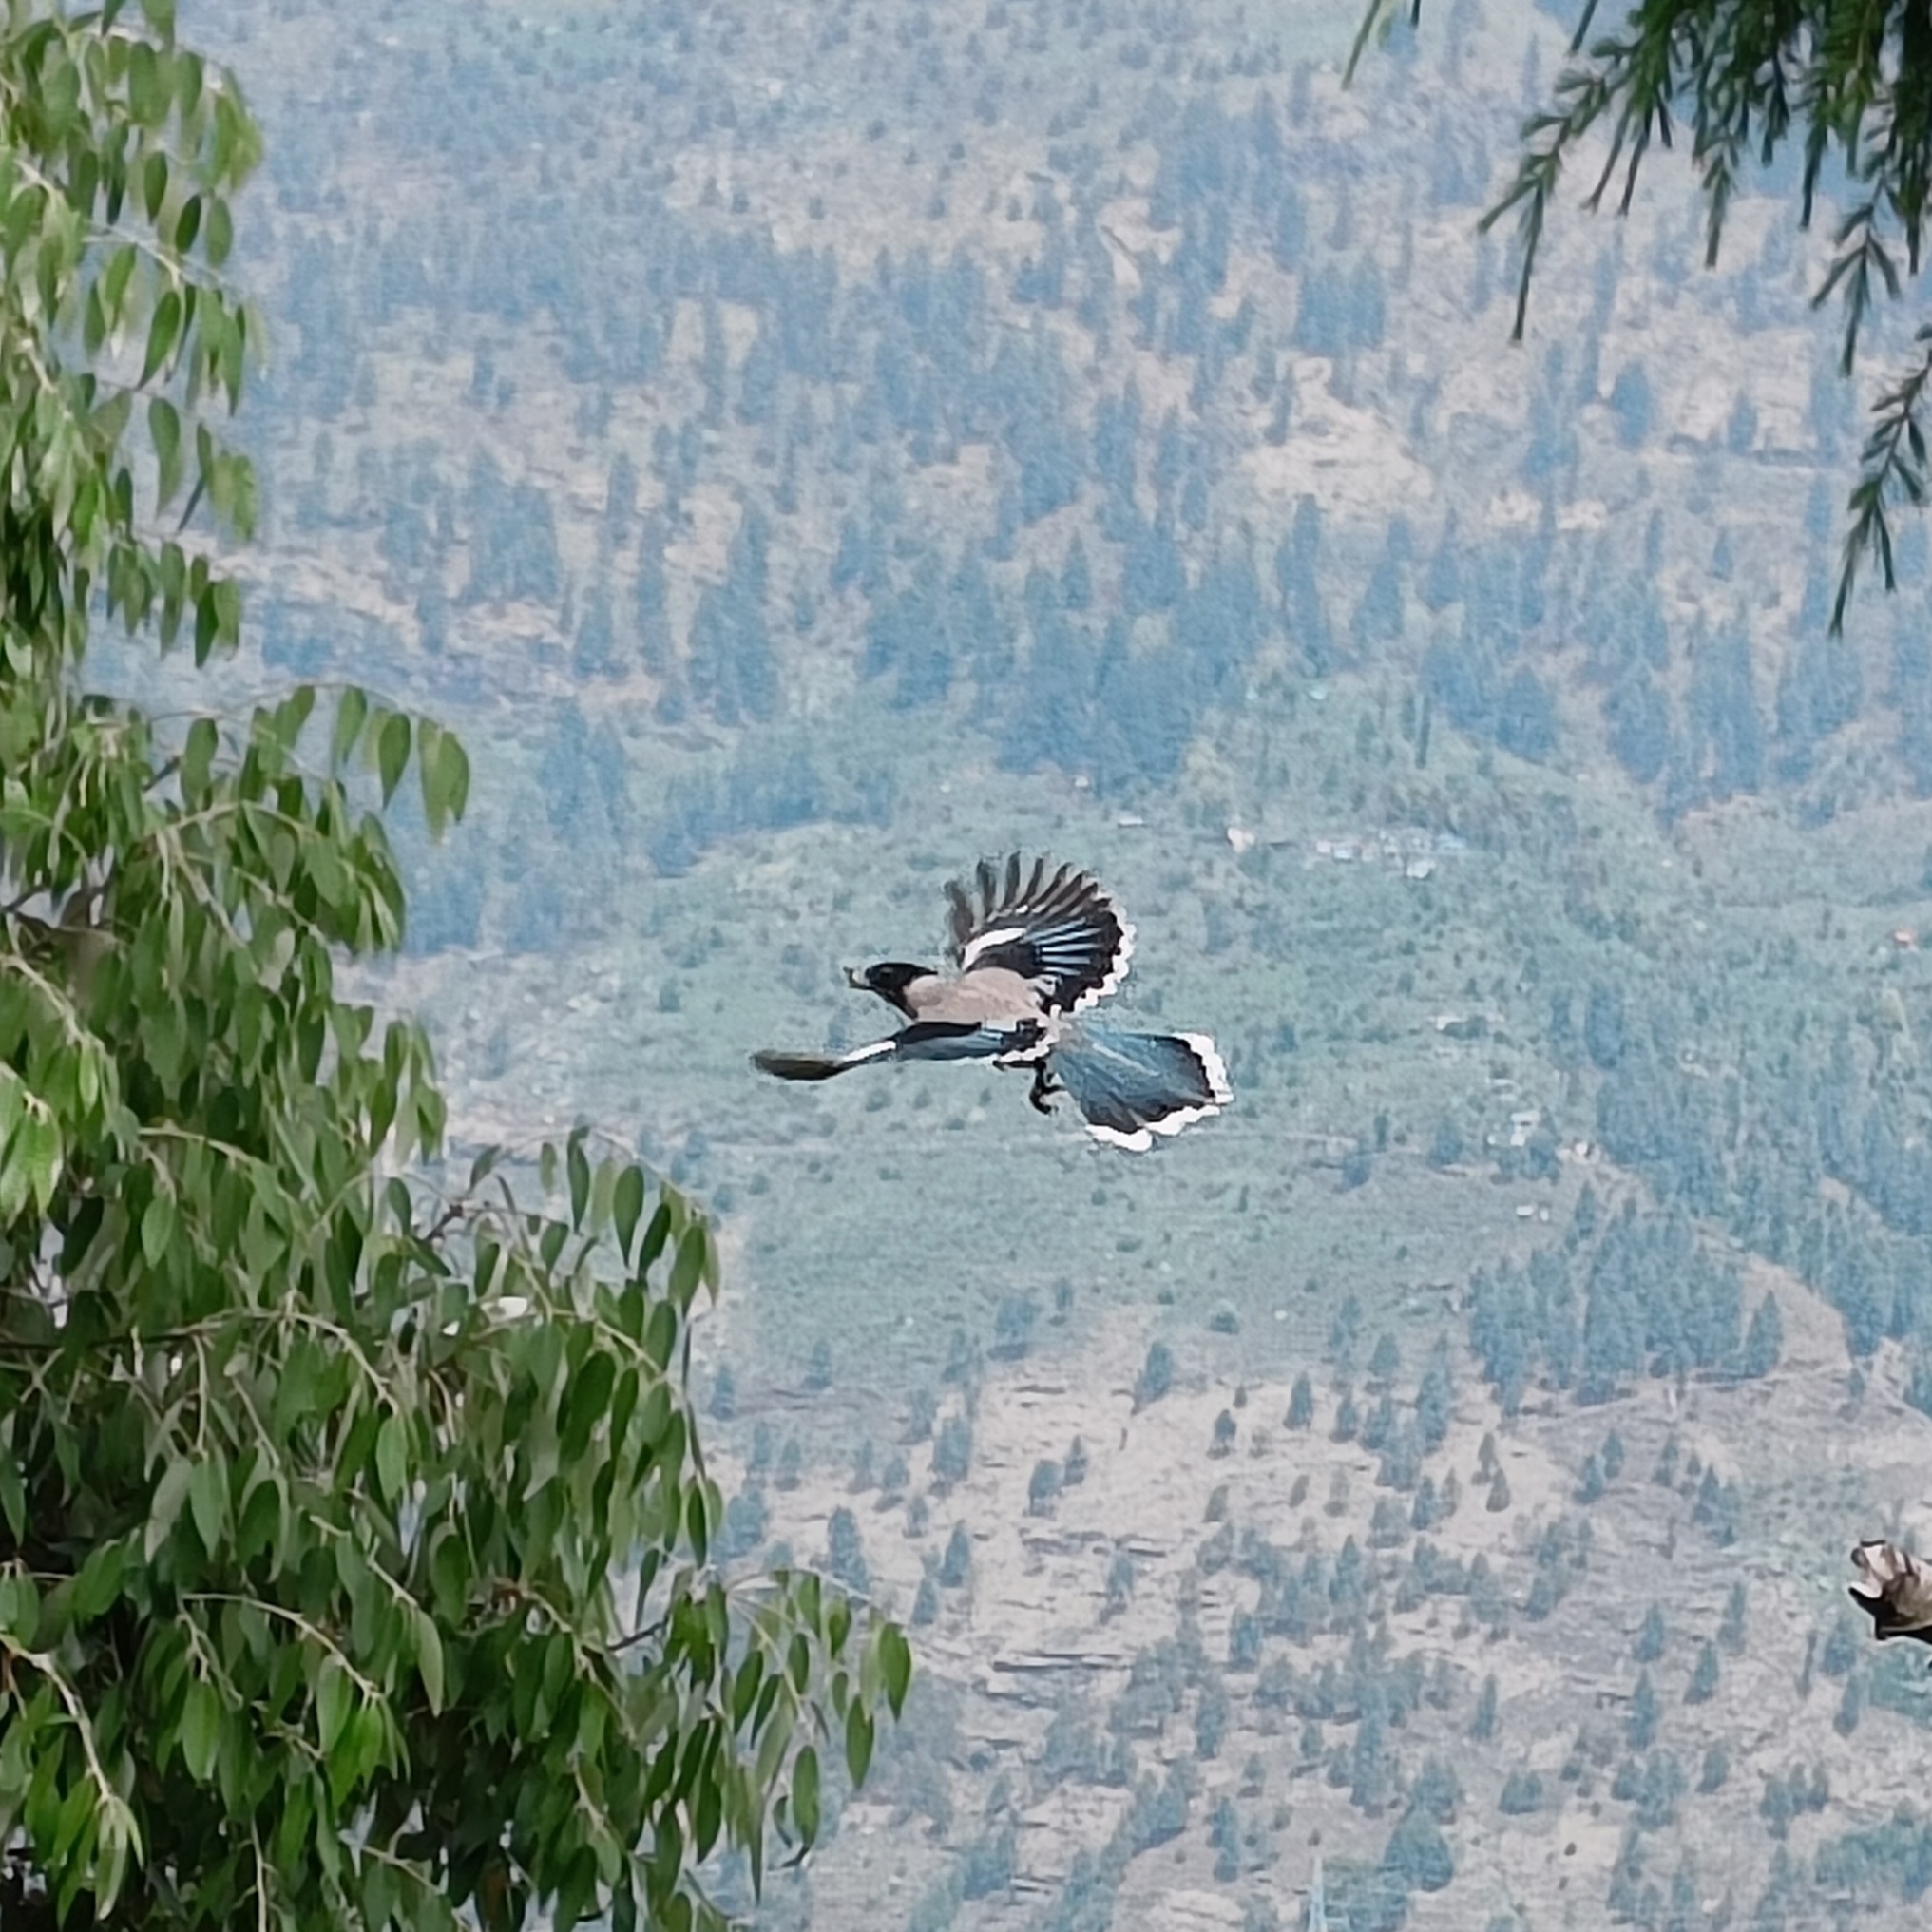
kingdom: Animalia
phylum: Chordata
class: Aves
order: Passeriformes
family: Corvidae
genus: Garrulus
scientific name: Garrulus lanceolatus
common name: Black-headed jay
